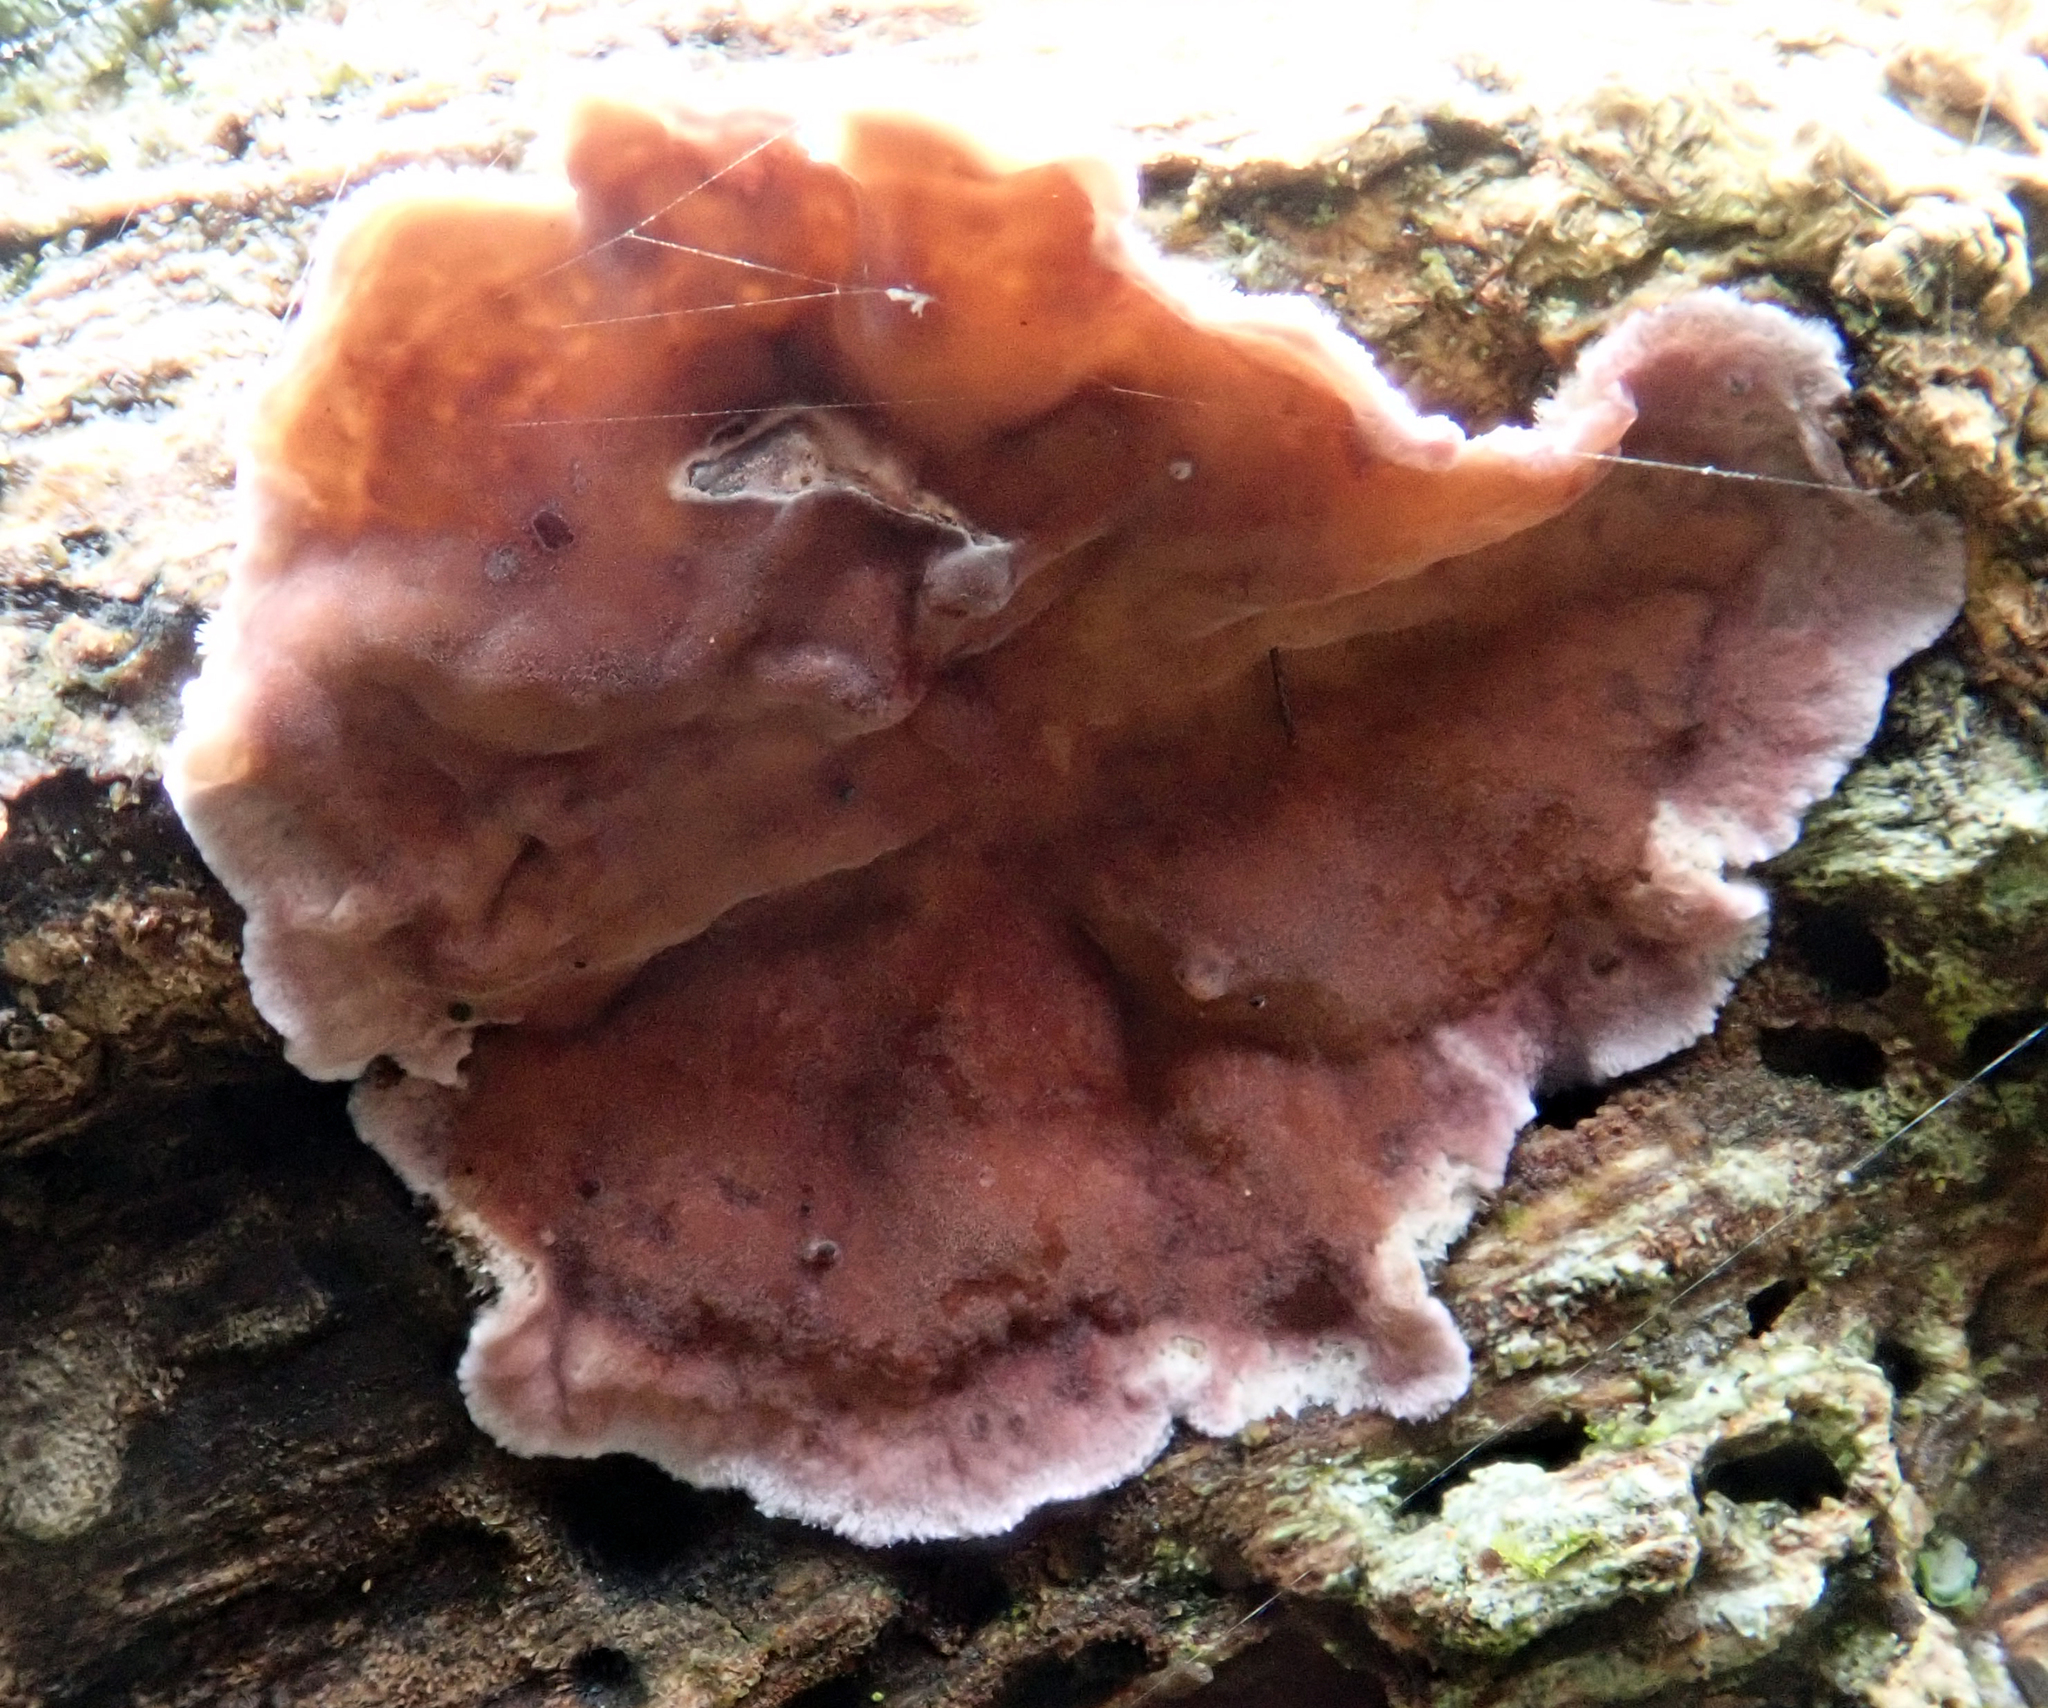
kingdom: Fungi
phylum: Basidiomycota
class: Agaricomycetes
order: Agaricales
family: Cyphellaceae
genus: Chondrostereum
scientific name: Chondrostereum purpureum
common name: Silver leaf disease
